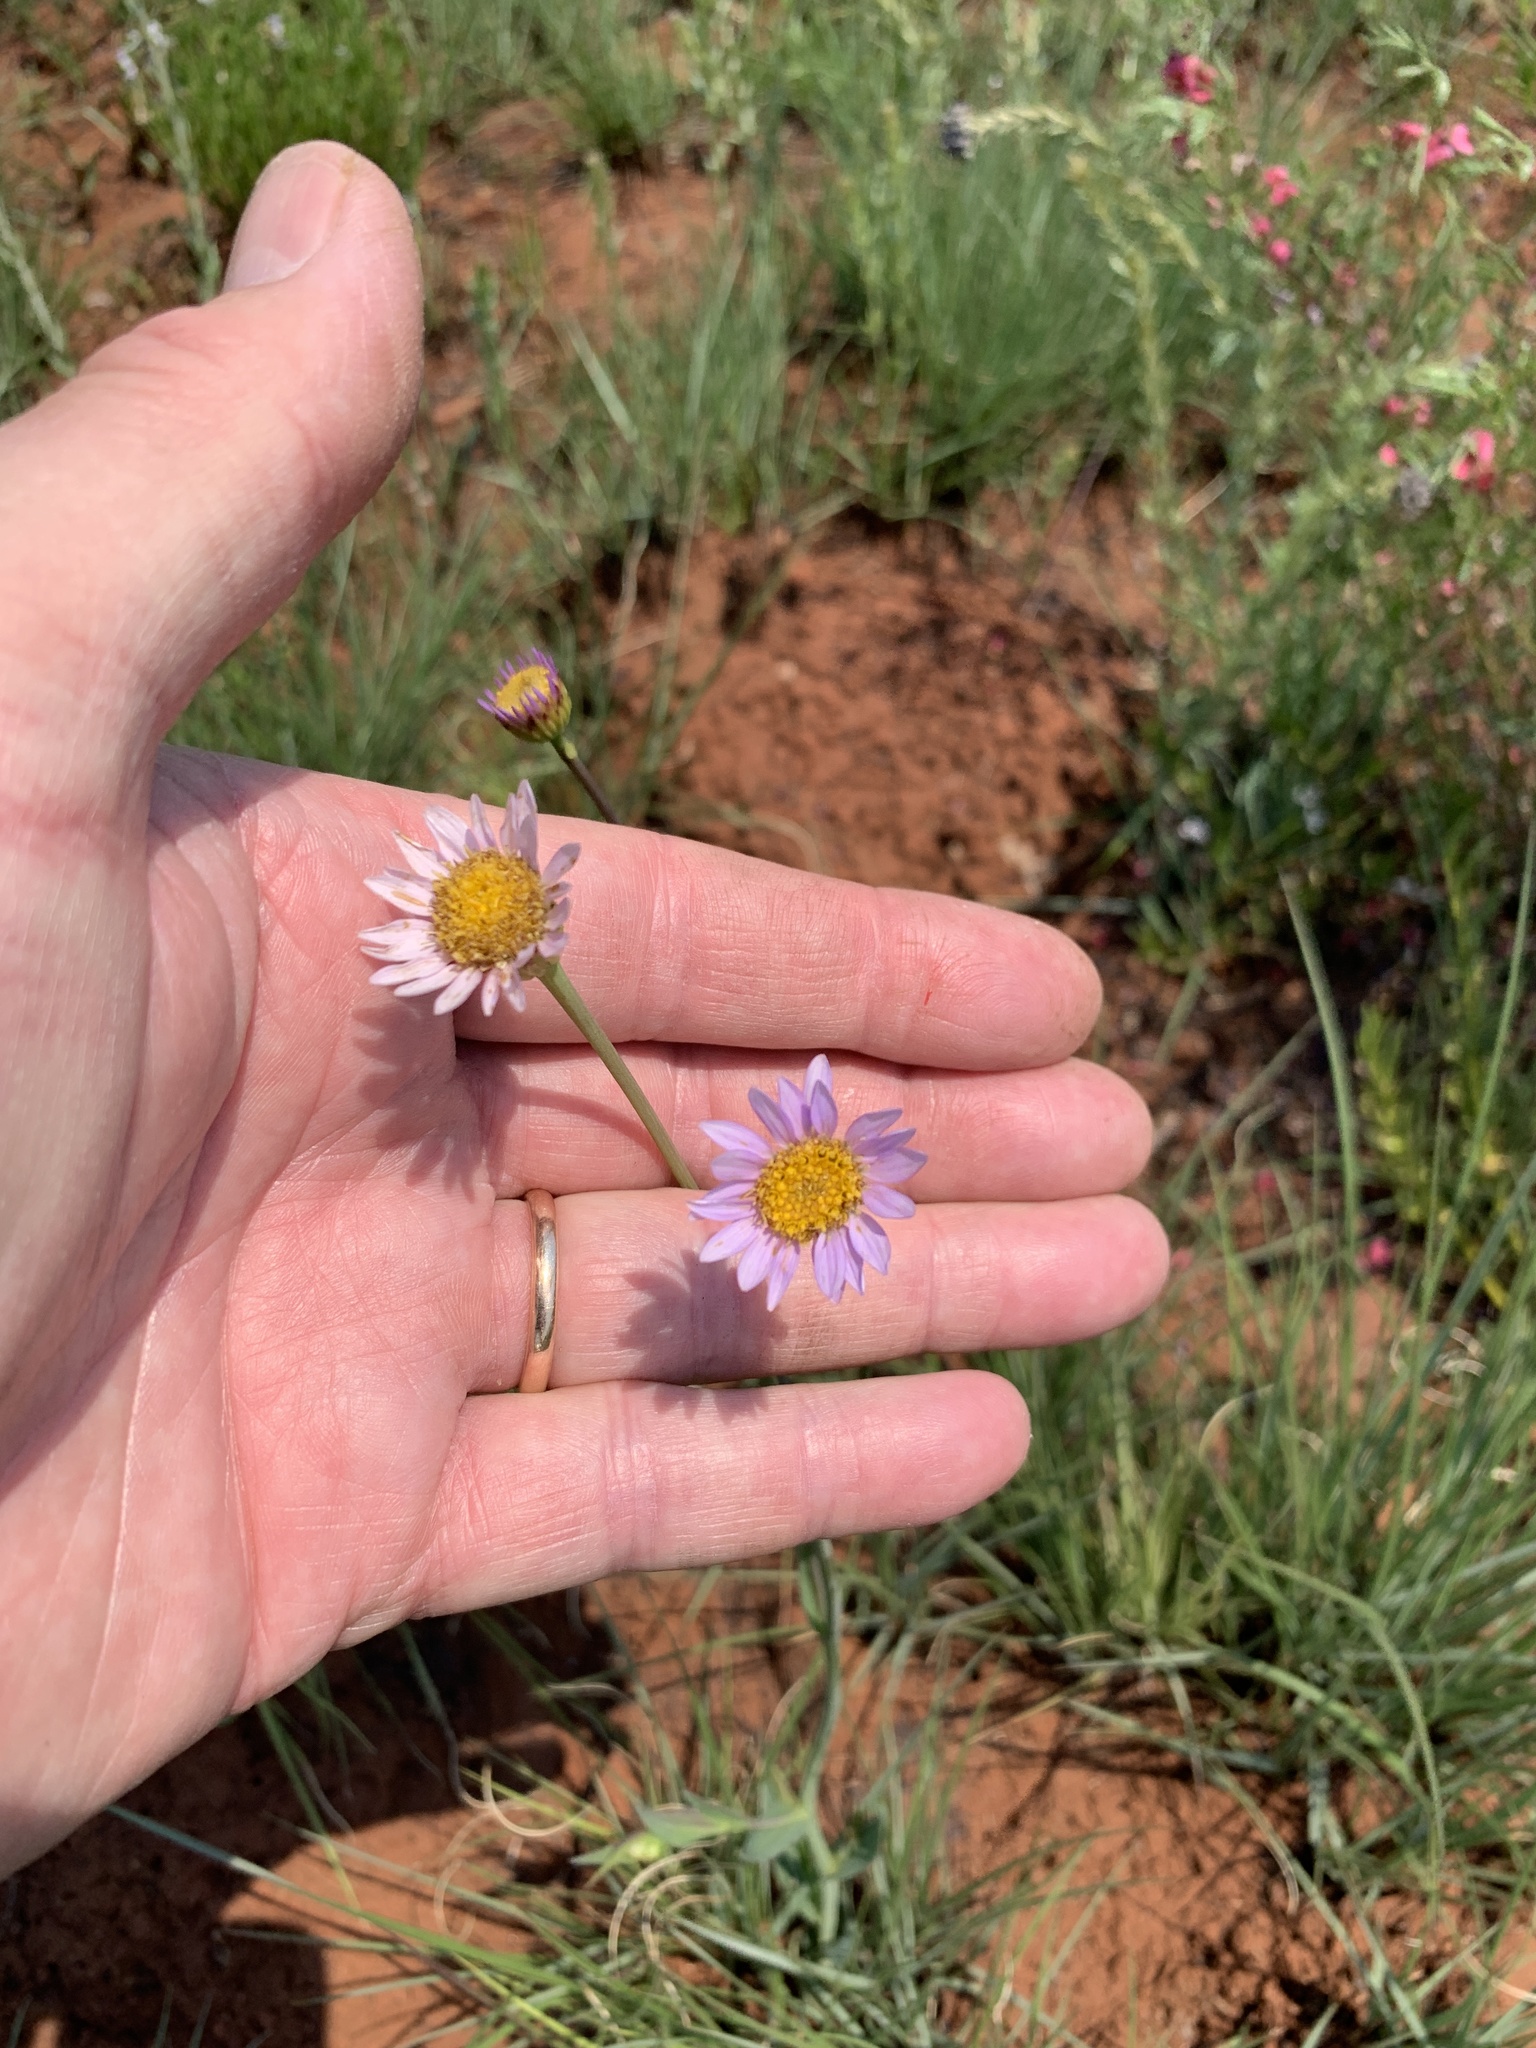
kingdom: Plantae
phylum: Tracheophyta
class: Magnoliopsida
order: Asterales
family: Asteraceae
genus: Afroaster
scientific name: Afroaster serrulatus
